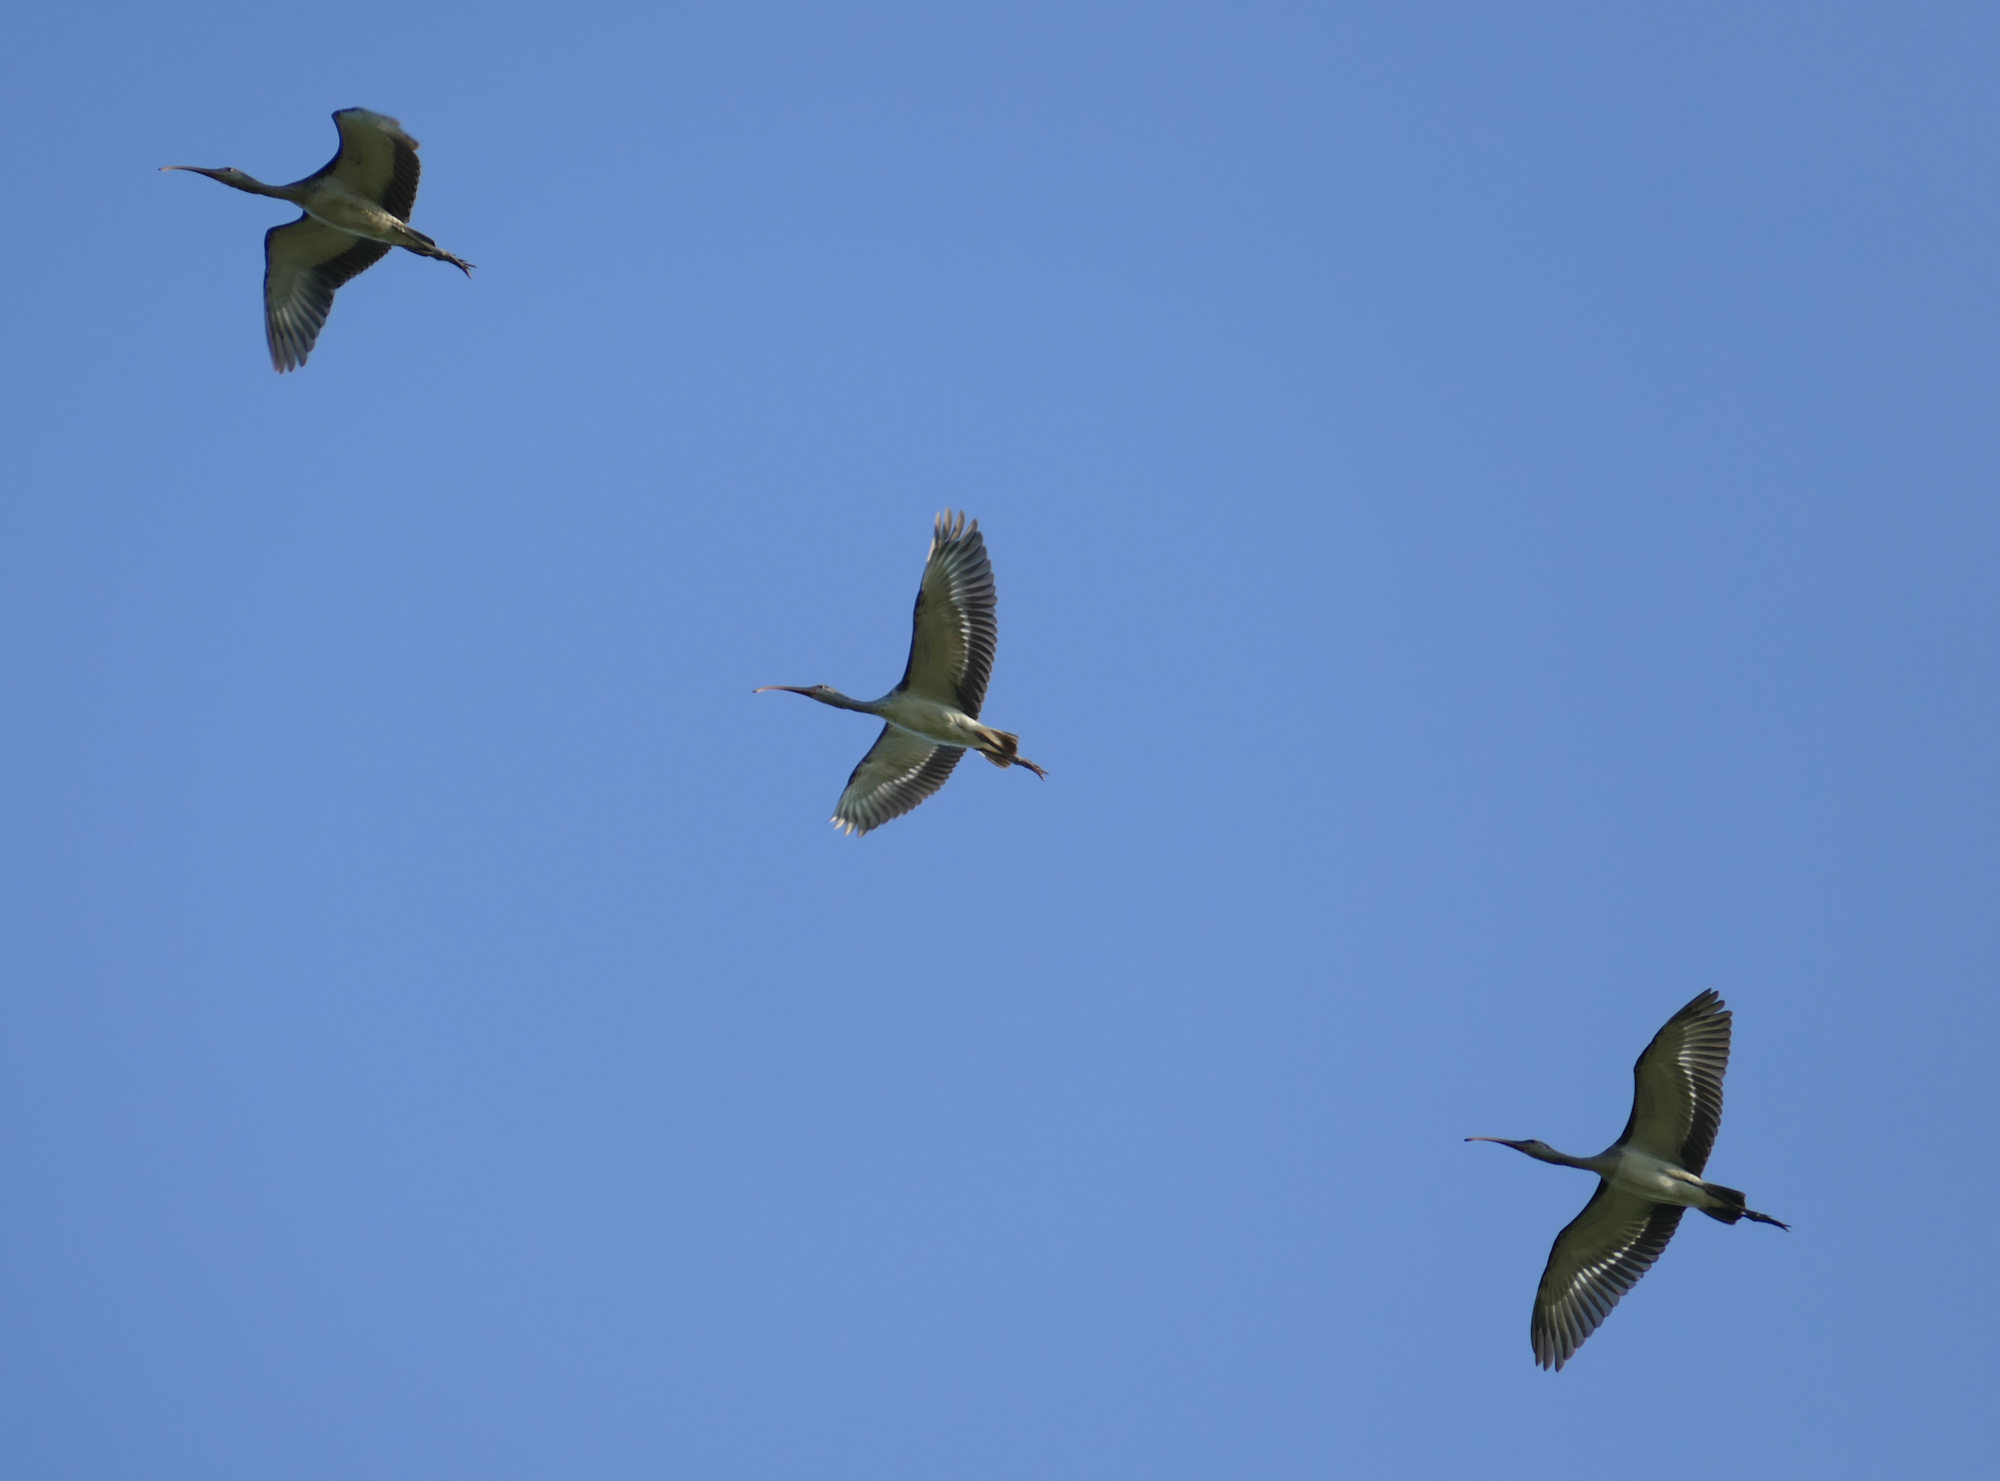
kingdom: Animalia
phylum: Chordata
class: Aves
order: Pelecaniformes
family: Threskiornithidae
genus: Eudocimus
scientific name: Eudocimus albus
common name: White ibis
